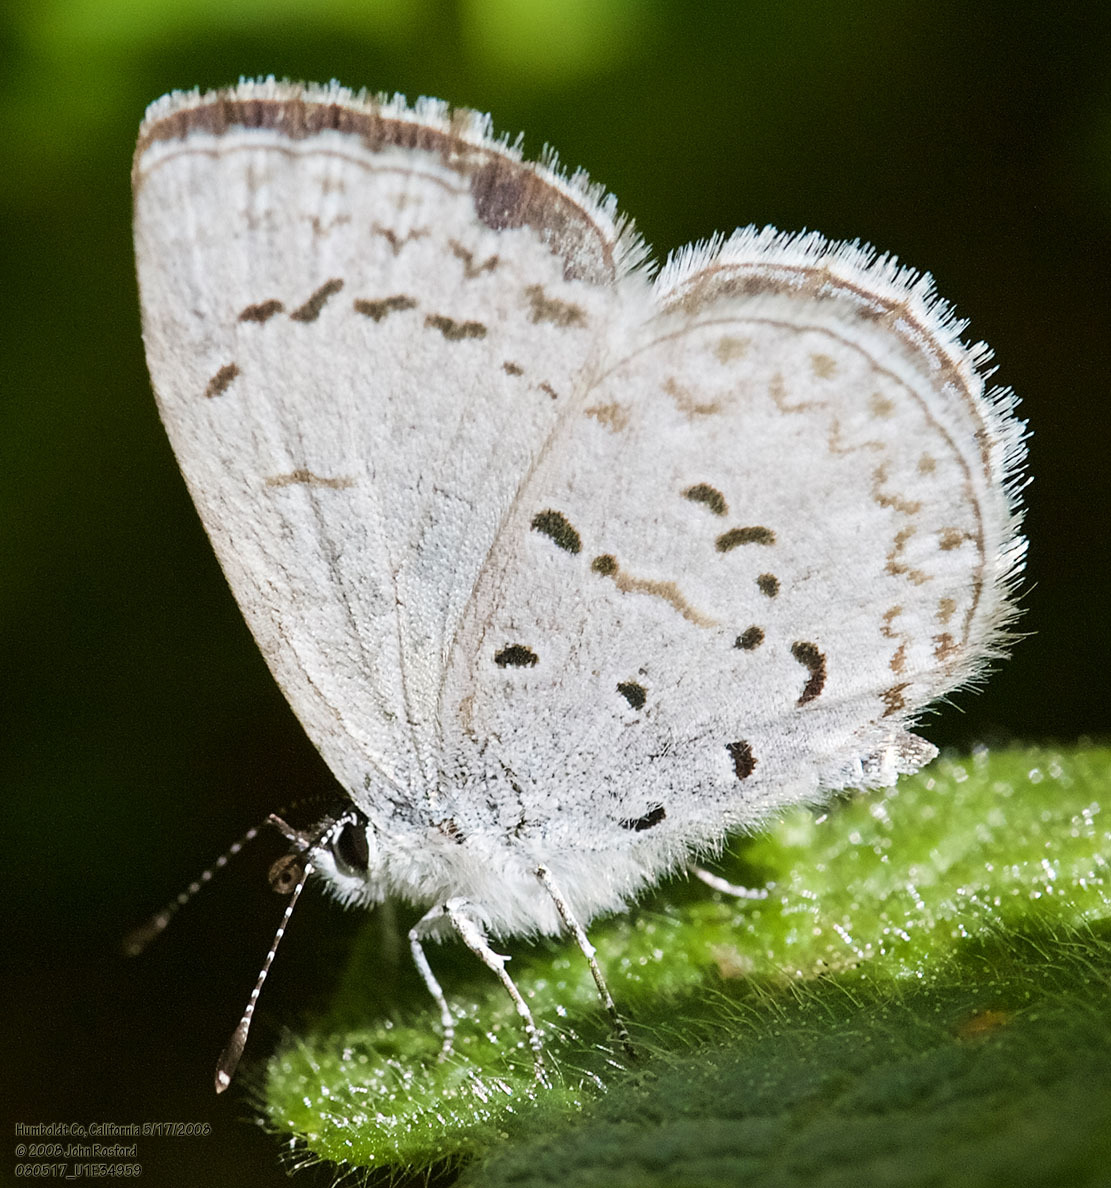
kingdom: Animalia
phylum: Arthropoda
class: Insecta
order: Lepidoptera
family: Lycaenidae
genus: Celastrina
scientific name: Celastrina ladon
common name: Spring azure
